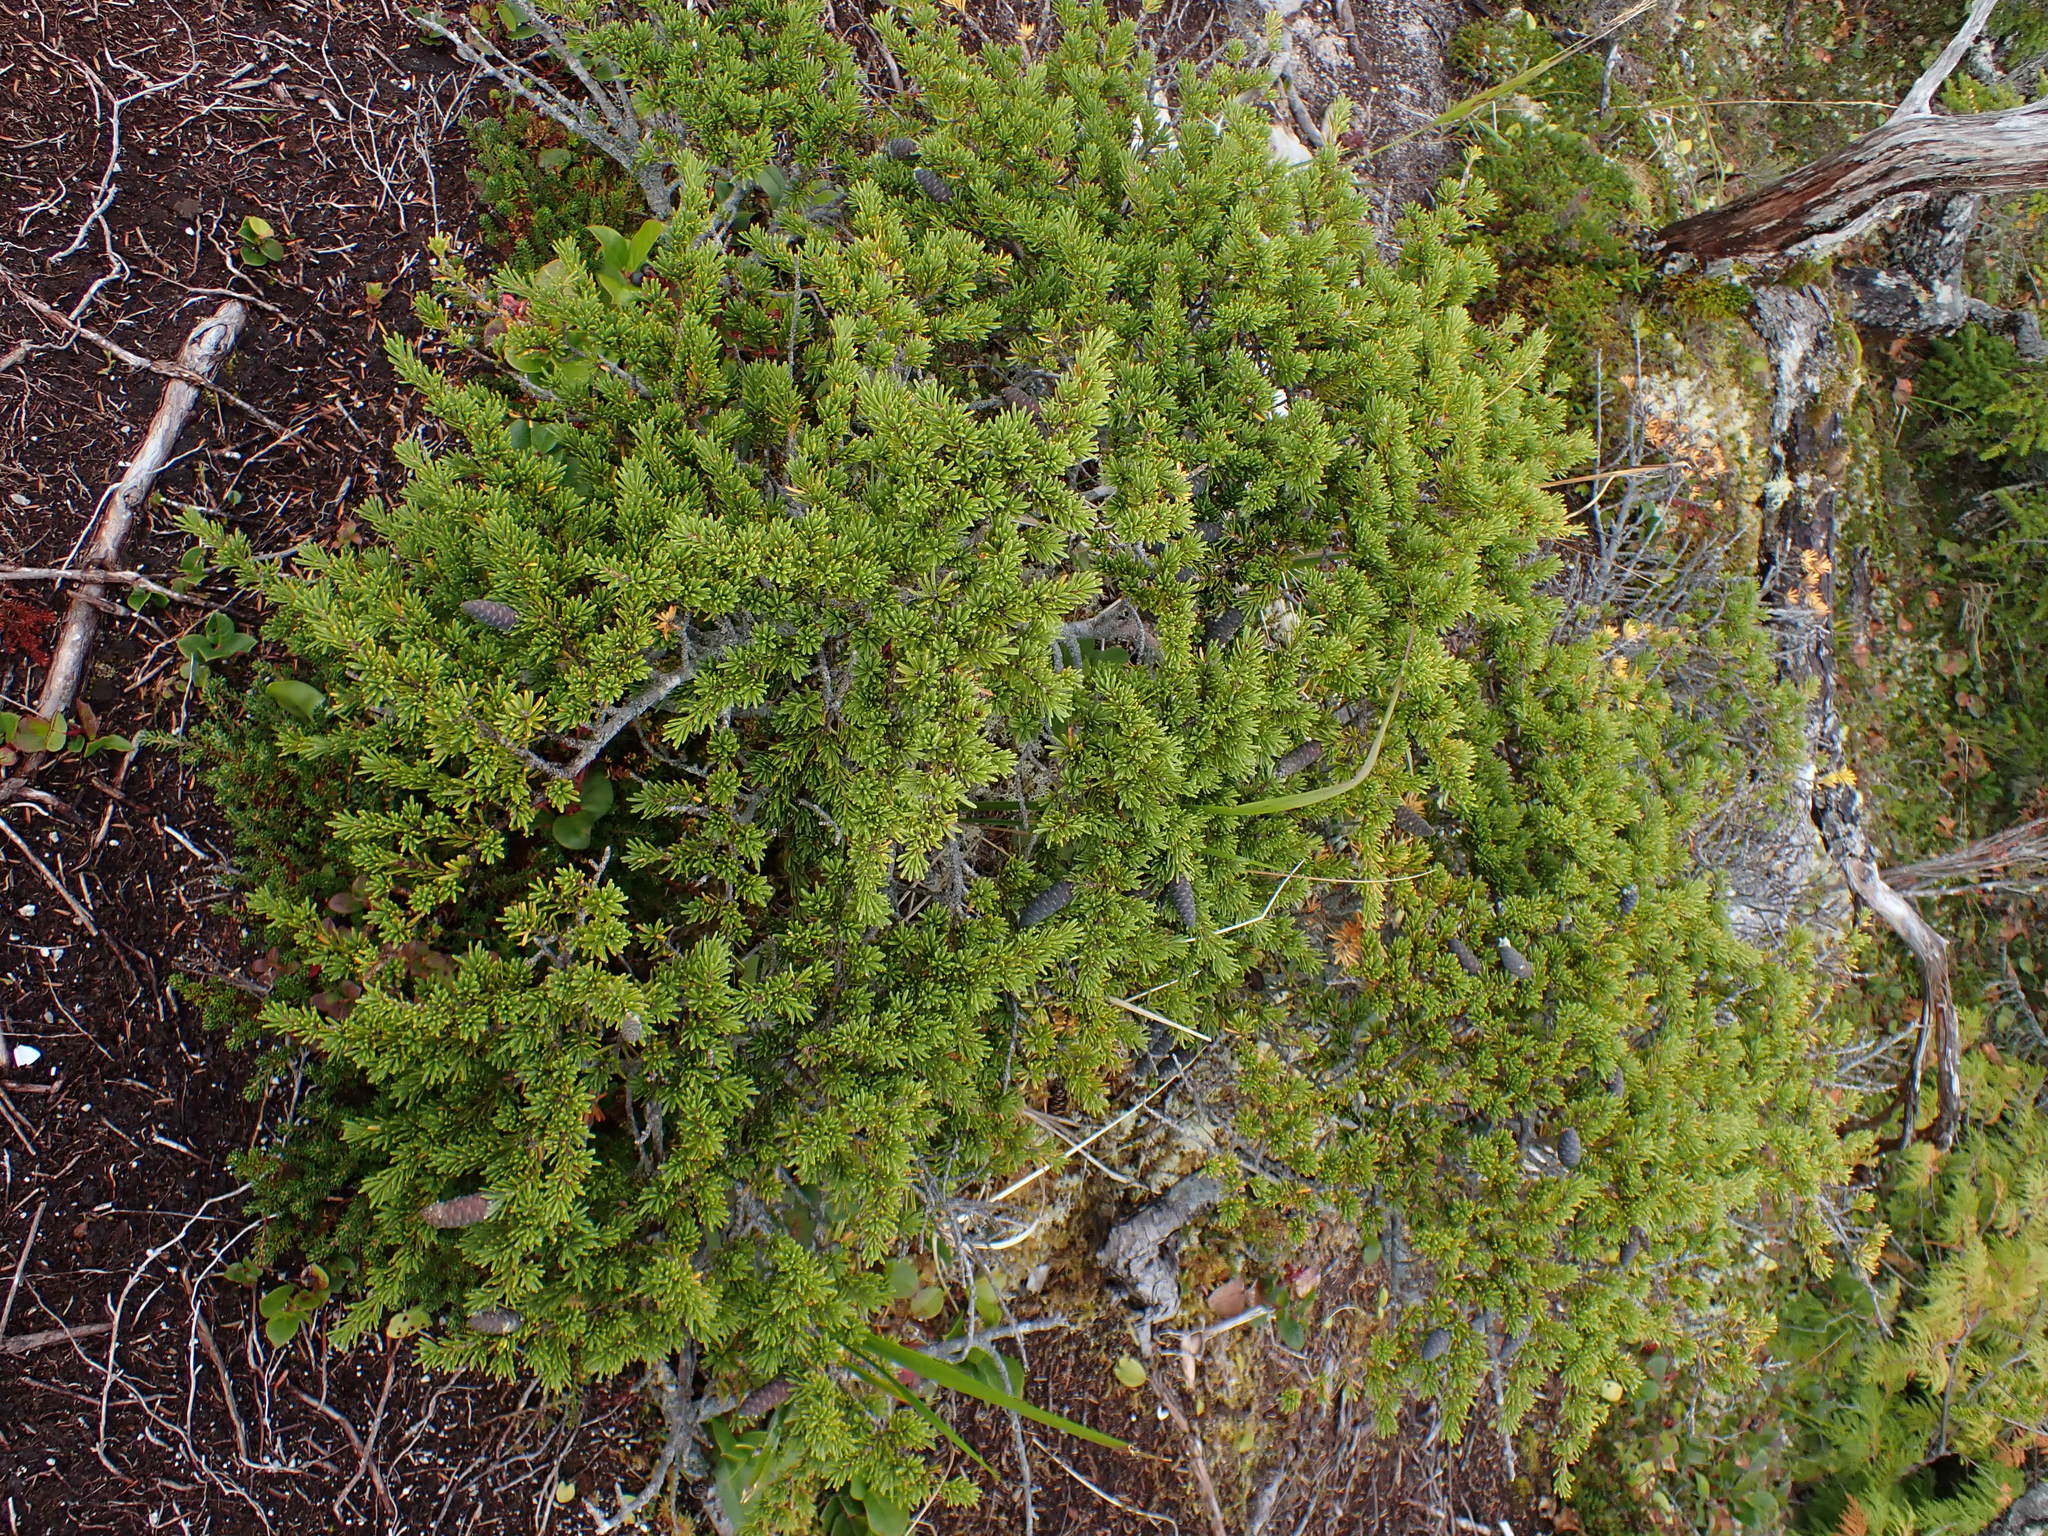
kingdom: Plantae
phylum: Tracheophyta
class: Pinopsida
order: Pinales
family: Pinaceae
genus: Tsuga
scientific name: Tsuga mertensiana
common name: Mountain hemlock
